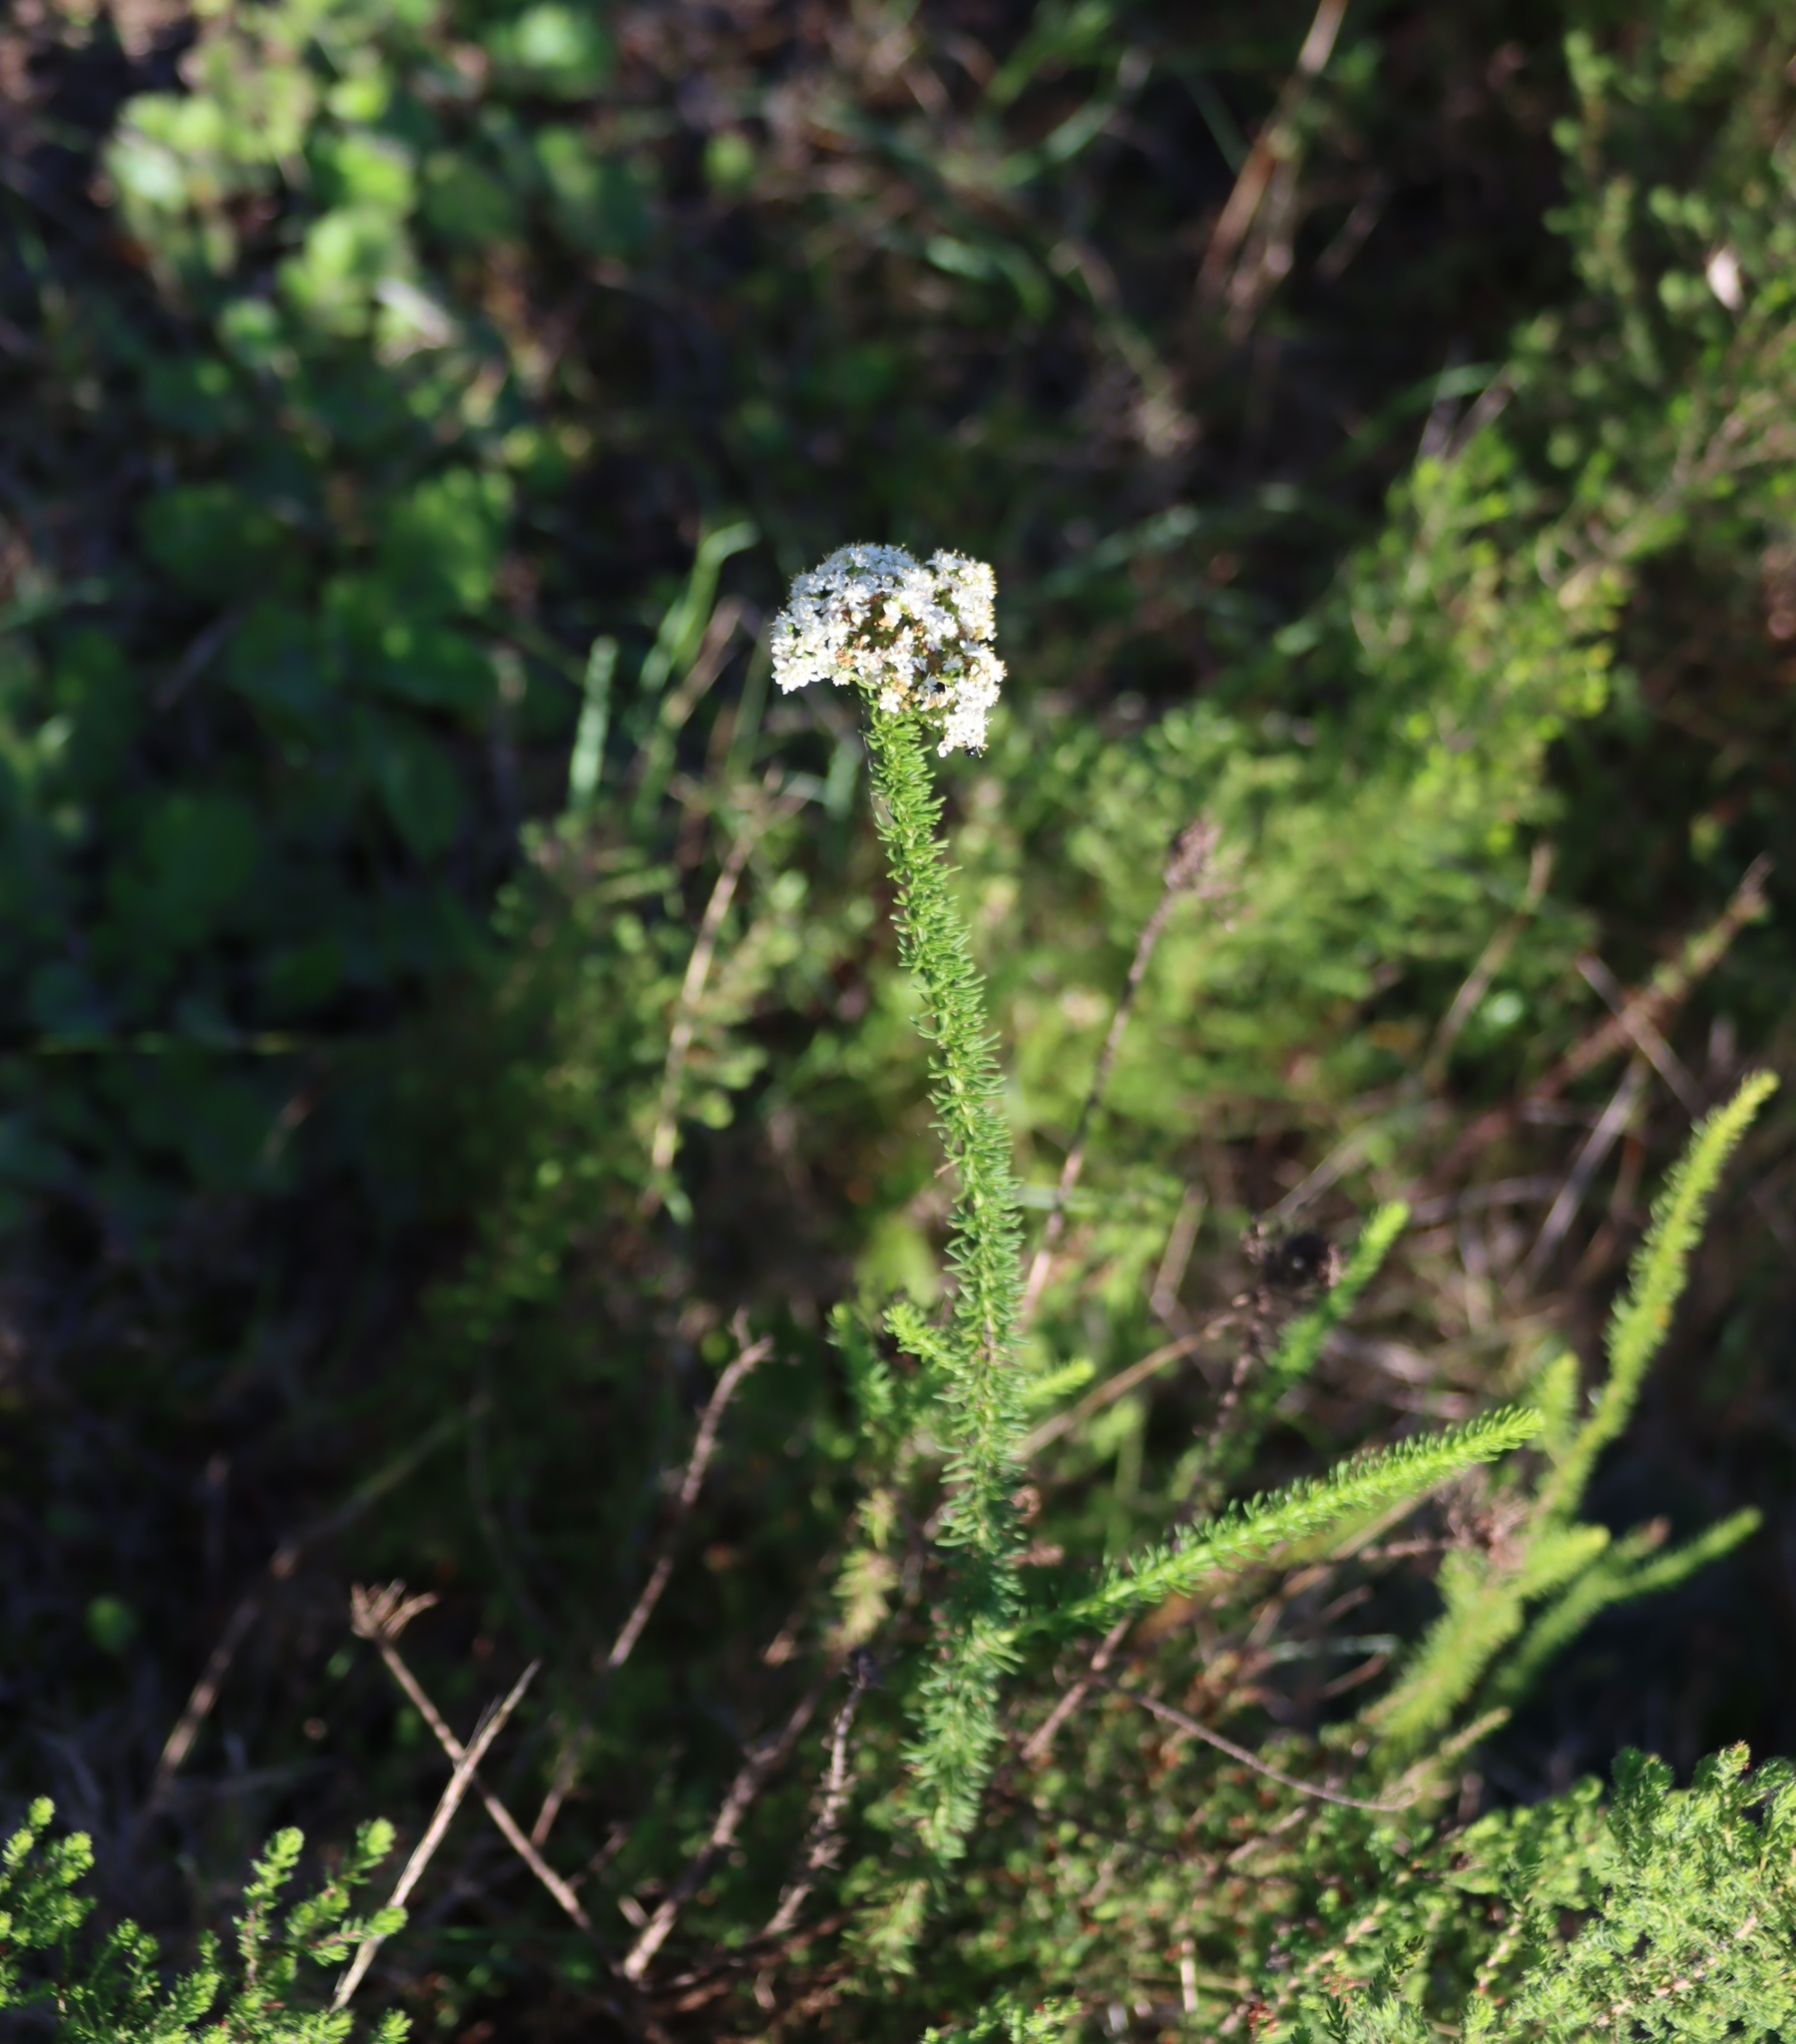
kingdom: Plantae
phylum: Tracheophyta
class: Magnoliopsida
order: Lamiales
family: Scrophulariaceae
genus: Selago
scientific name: Selago corymbosa
